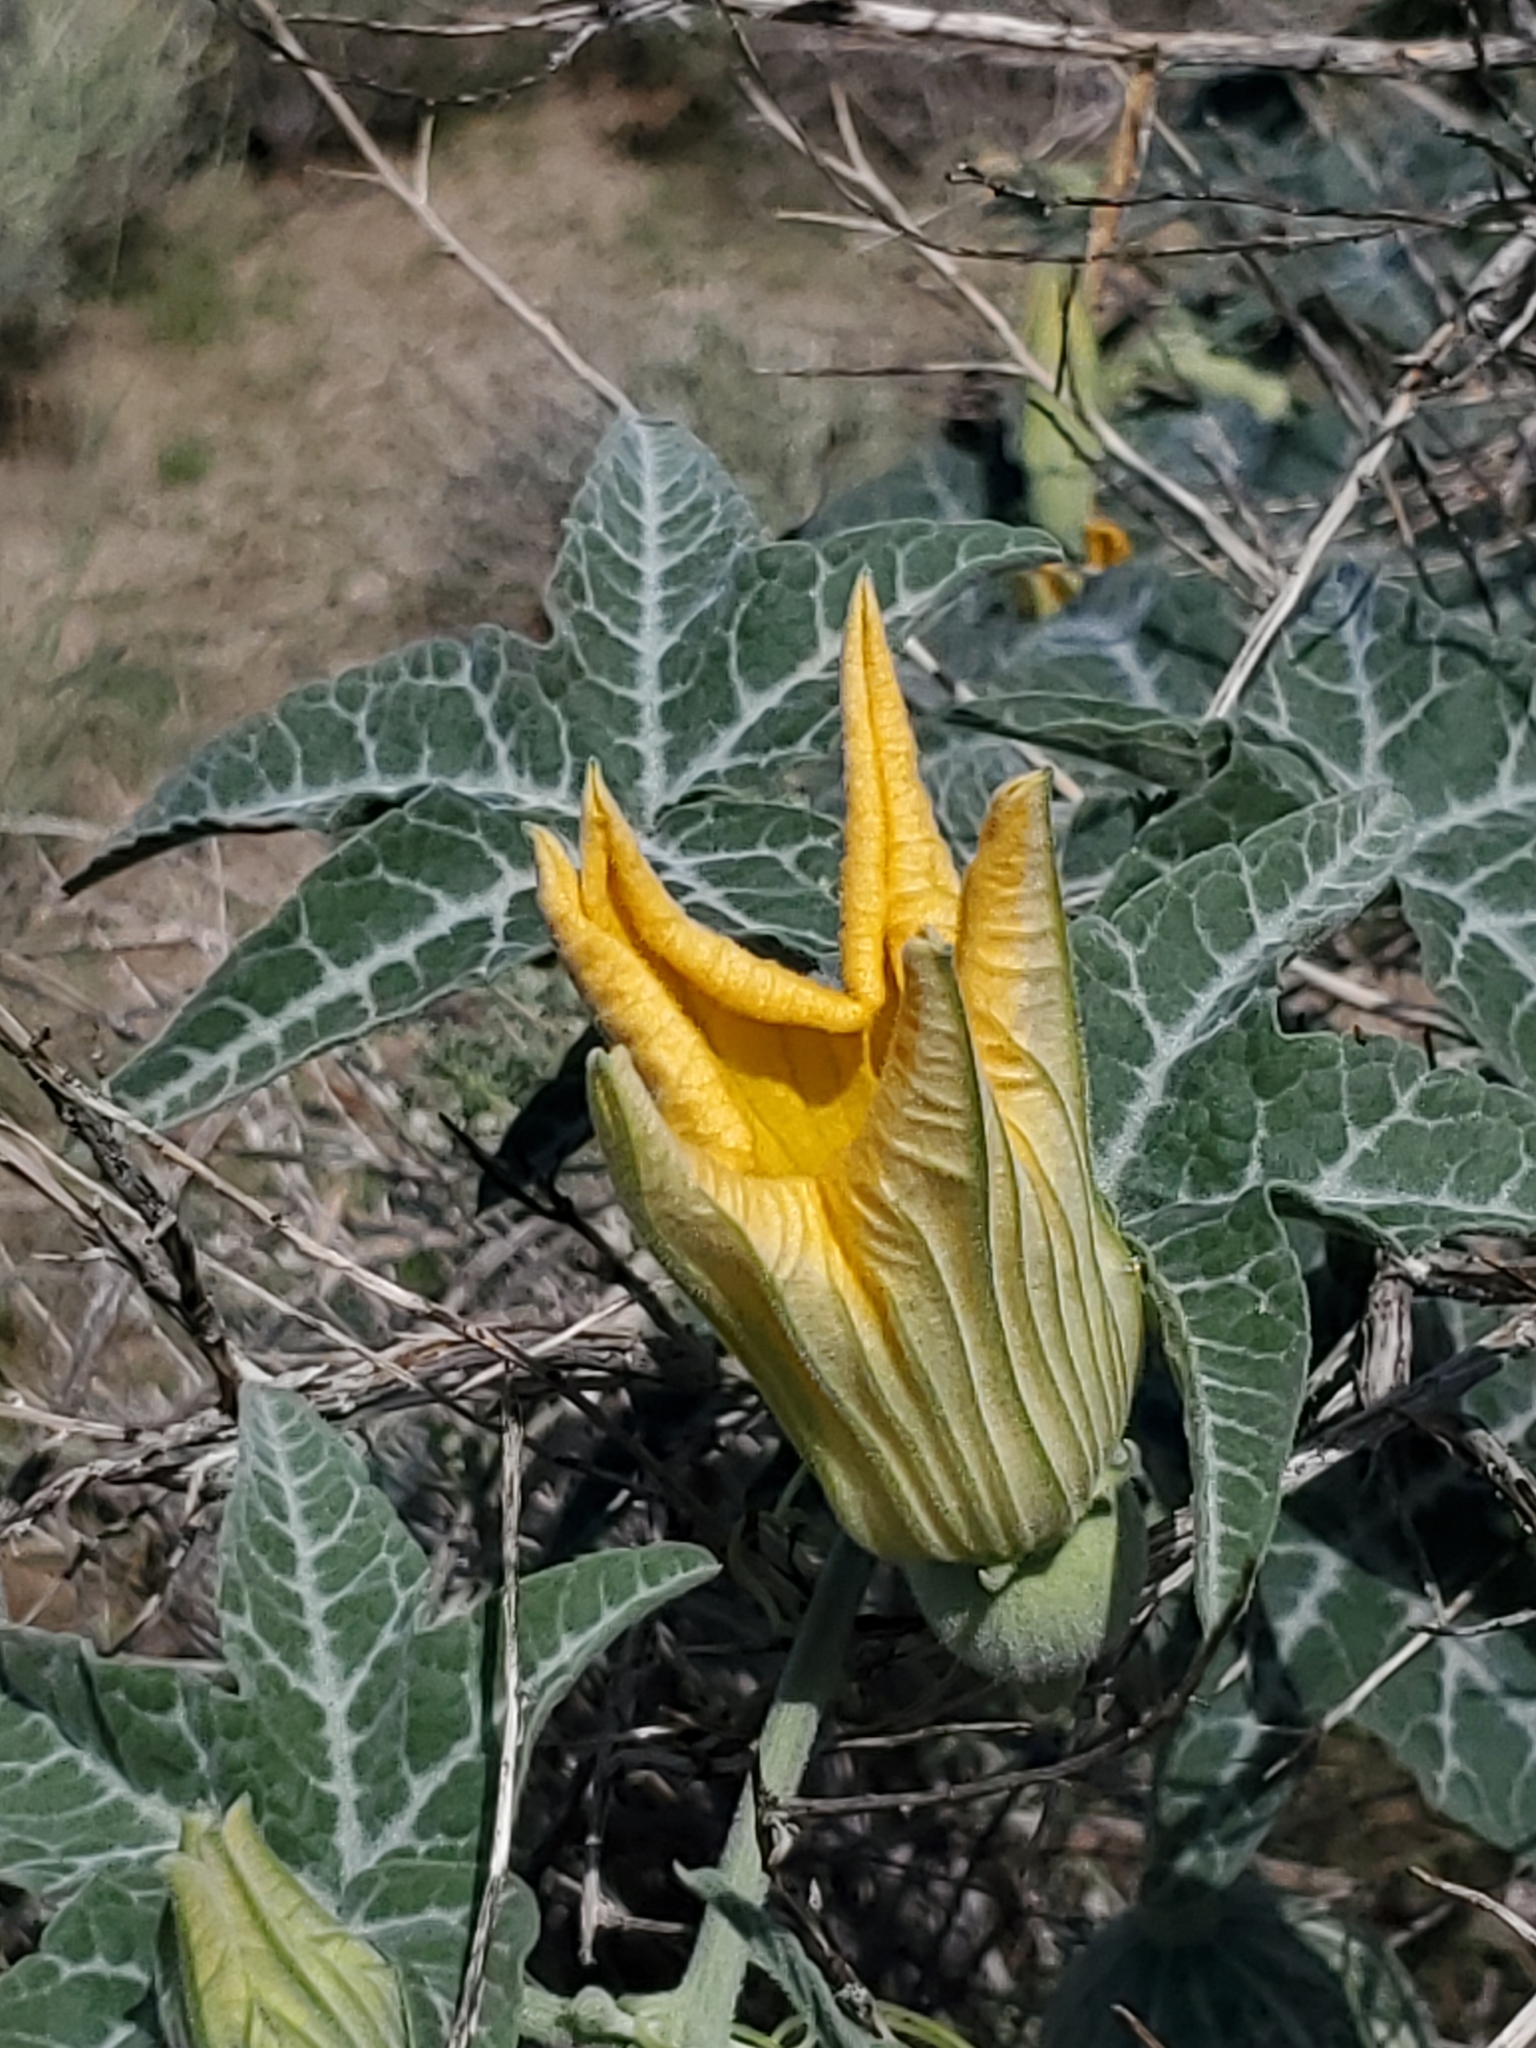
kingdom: Plantae
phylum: Tracheophyta
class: Magnoliopsida
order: Cucurbitales
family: Cucurbitaceae
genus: Cucurbita
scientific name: Cucurbita palmata
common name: Coyote-melon
